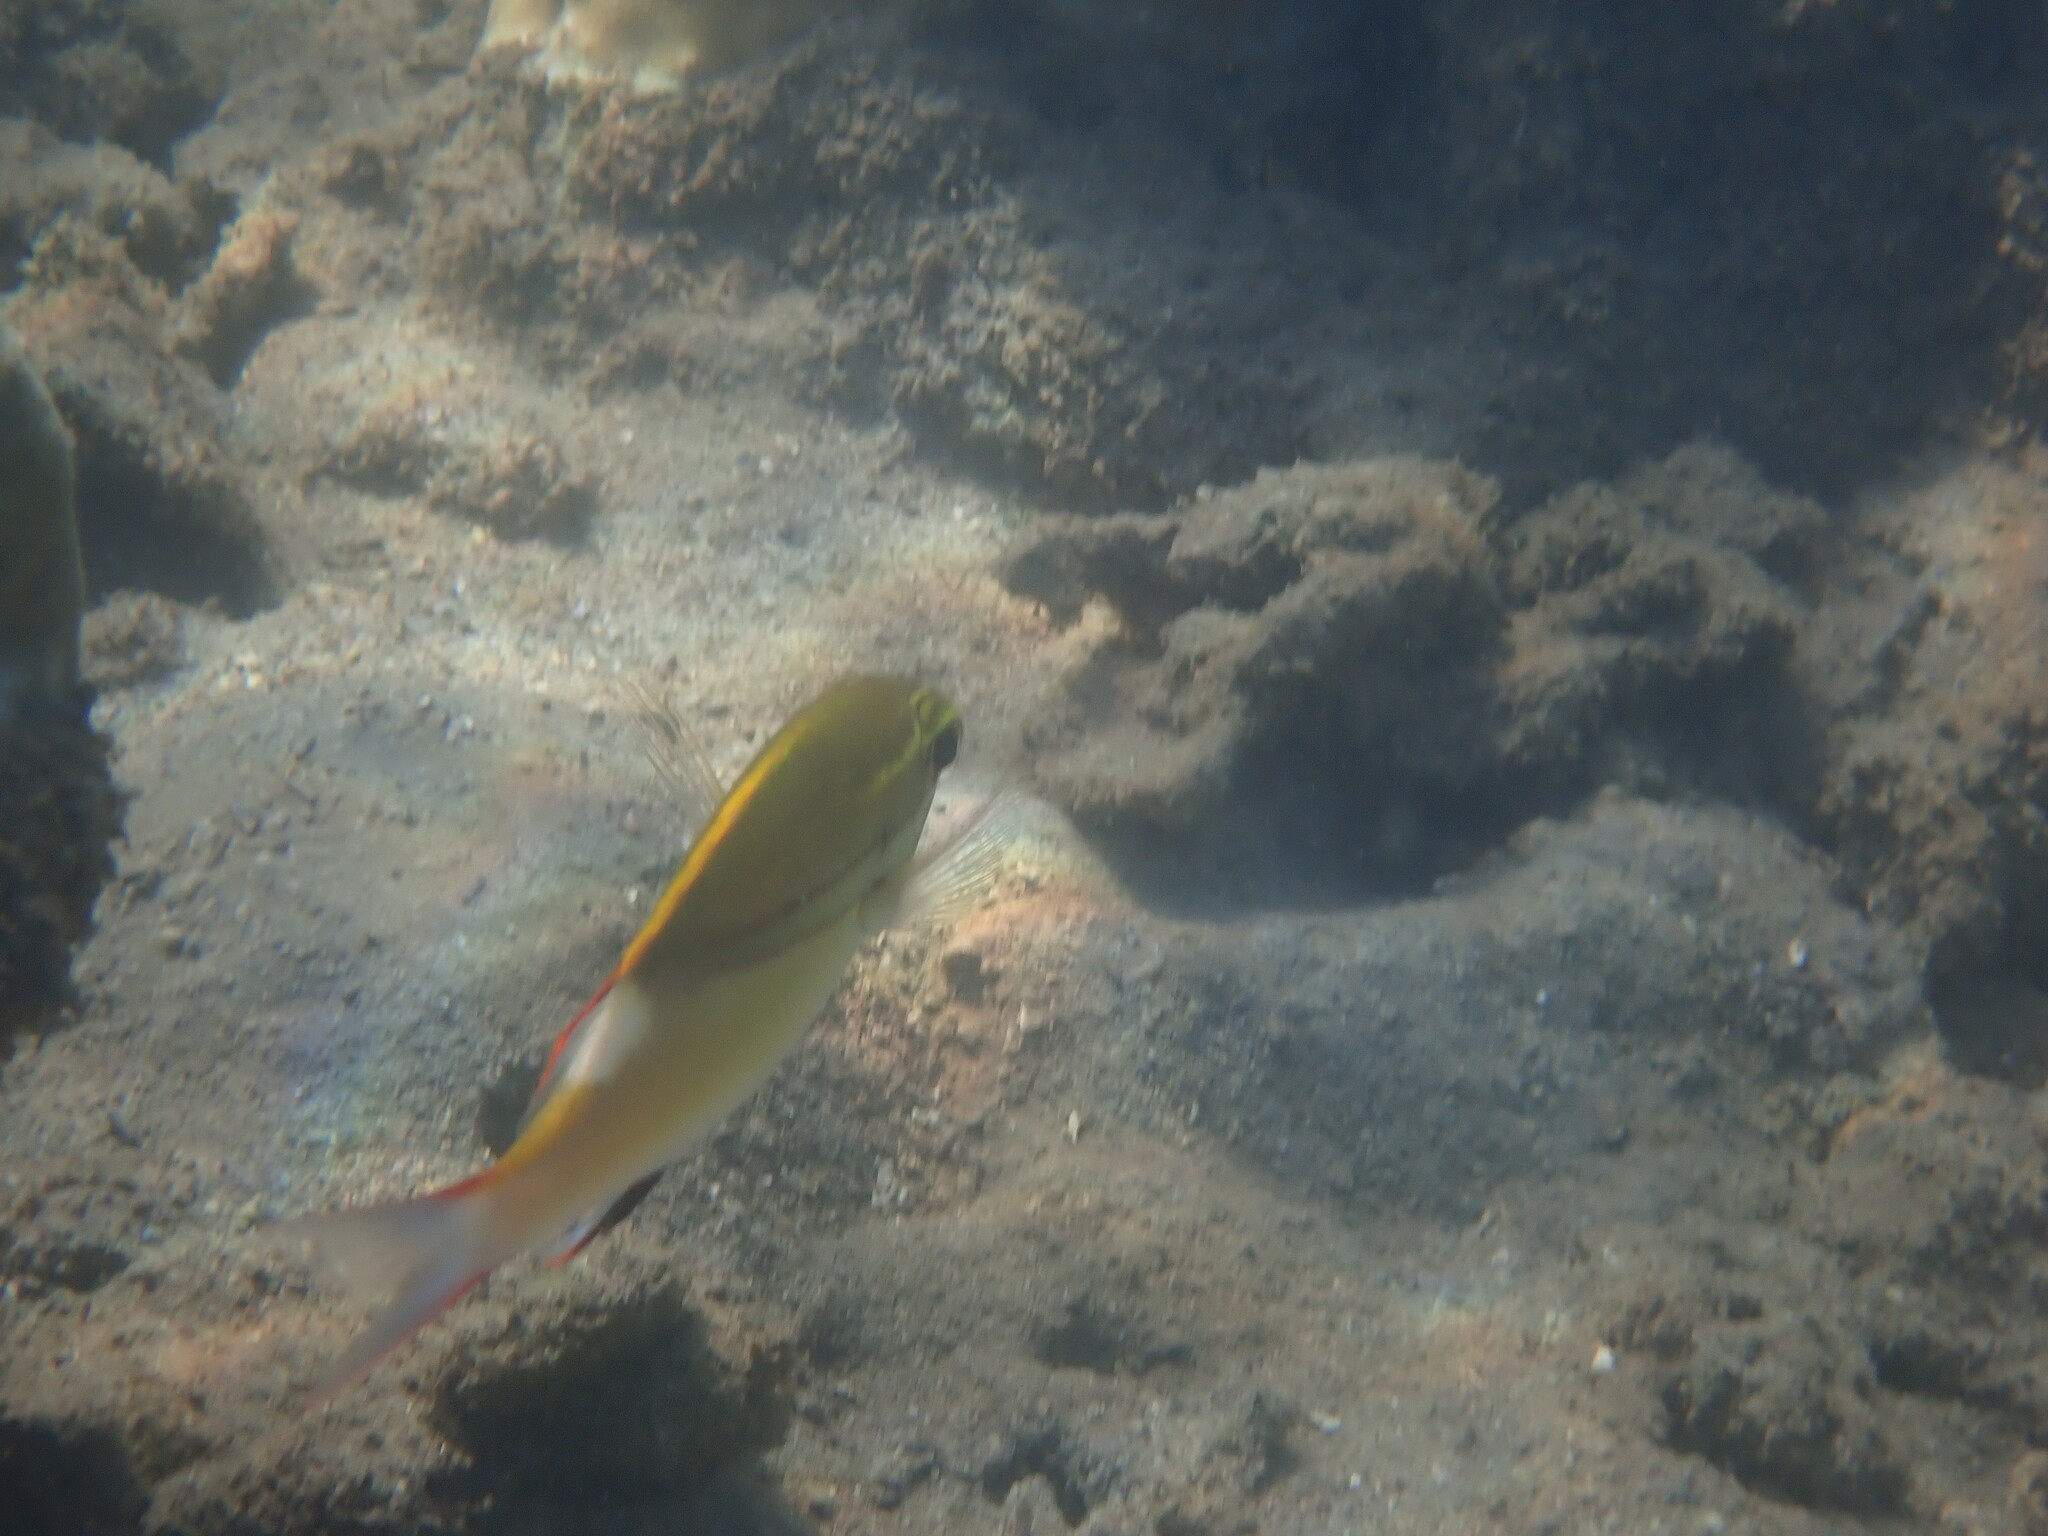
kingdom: Animalia
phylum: Chordata
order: Perciformes
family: Nemipteridae
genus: Scolopsis
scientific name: Scolopsis bilineata
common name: Two-lined monocle bream
